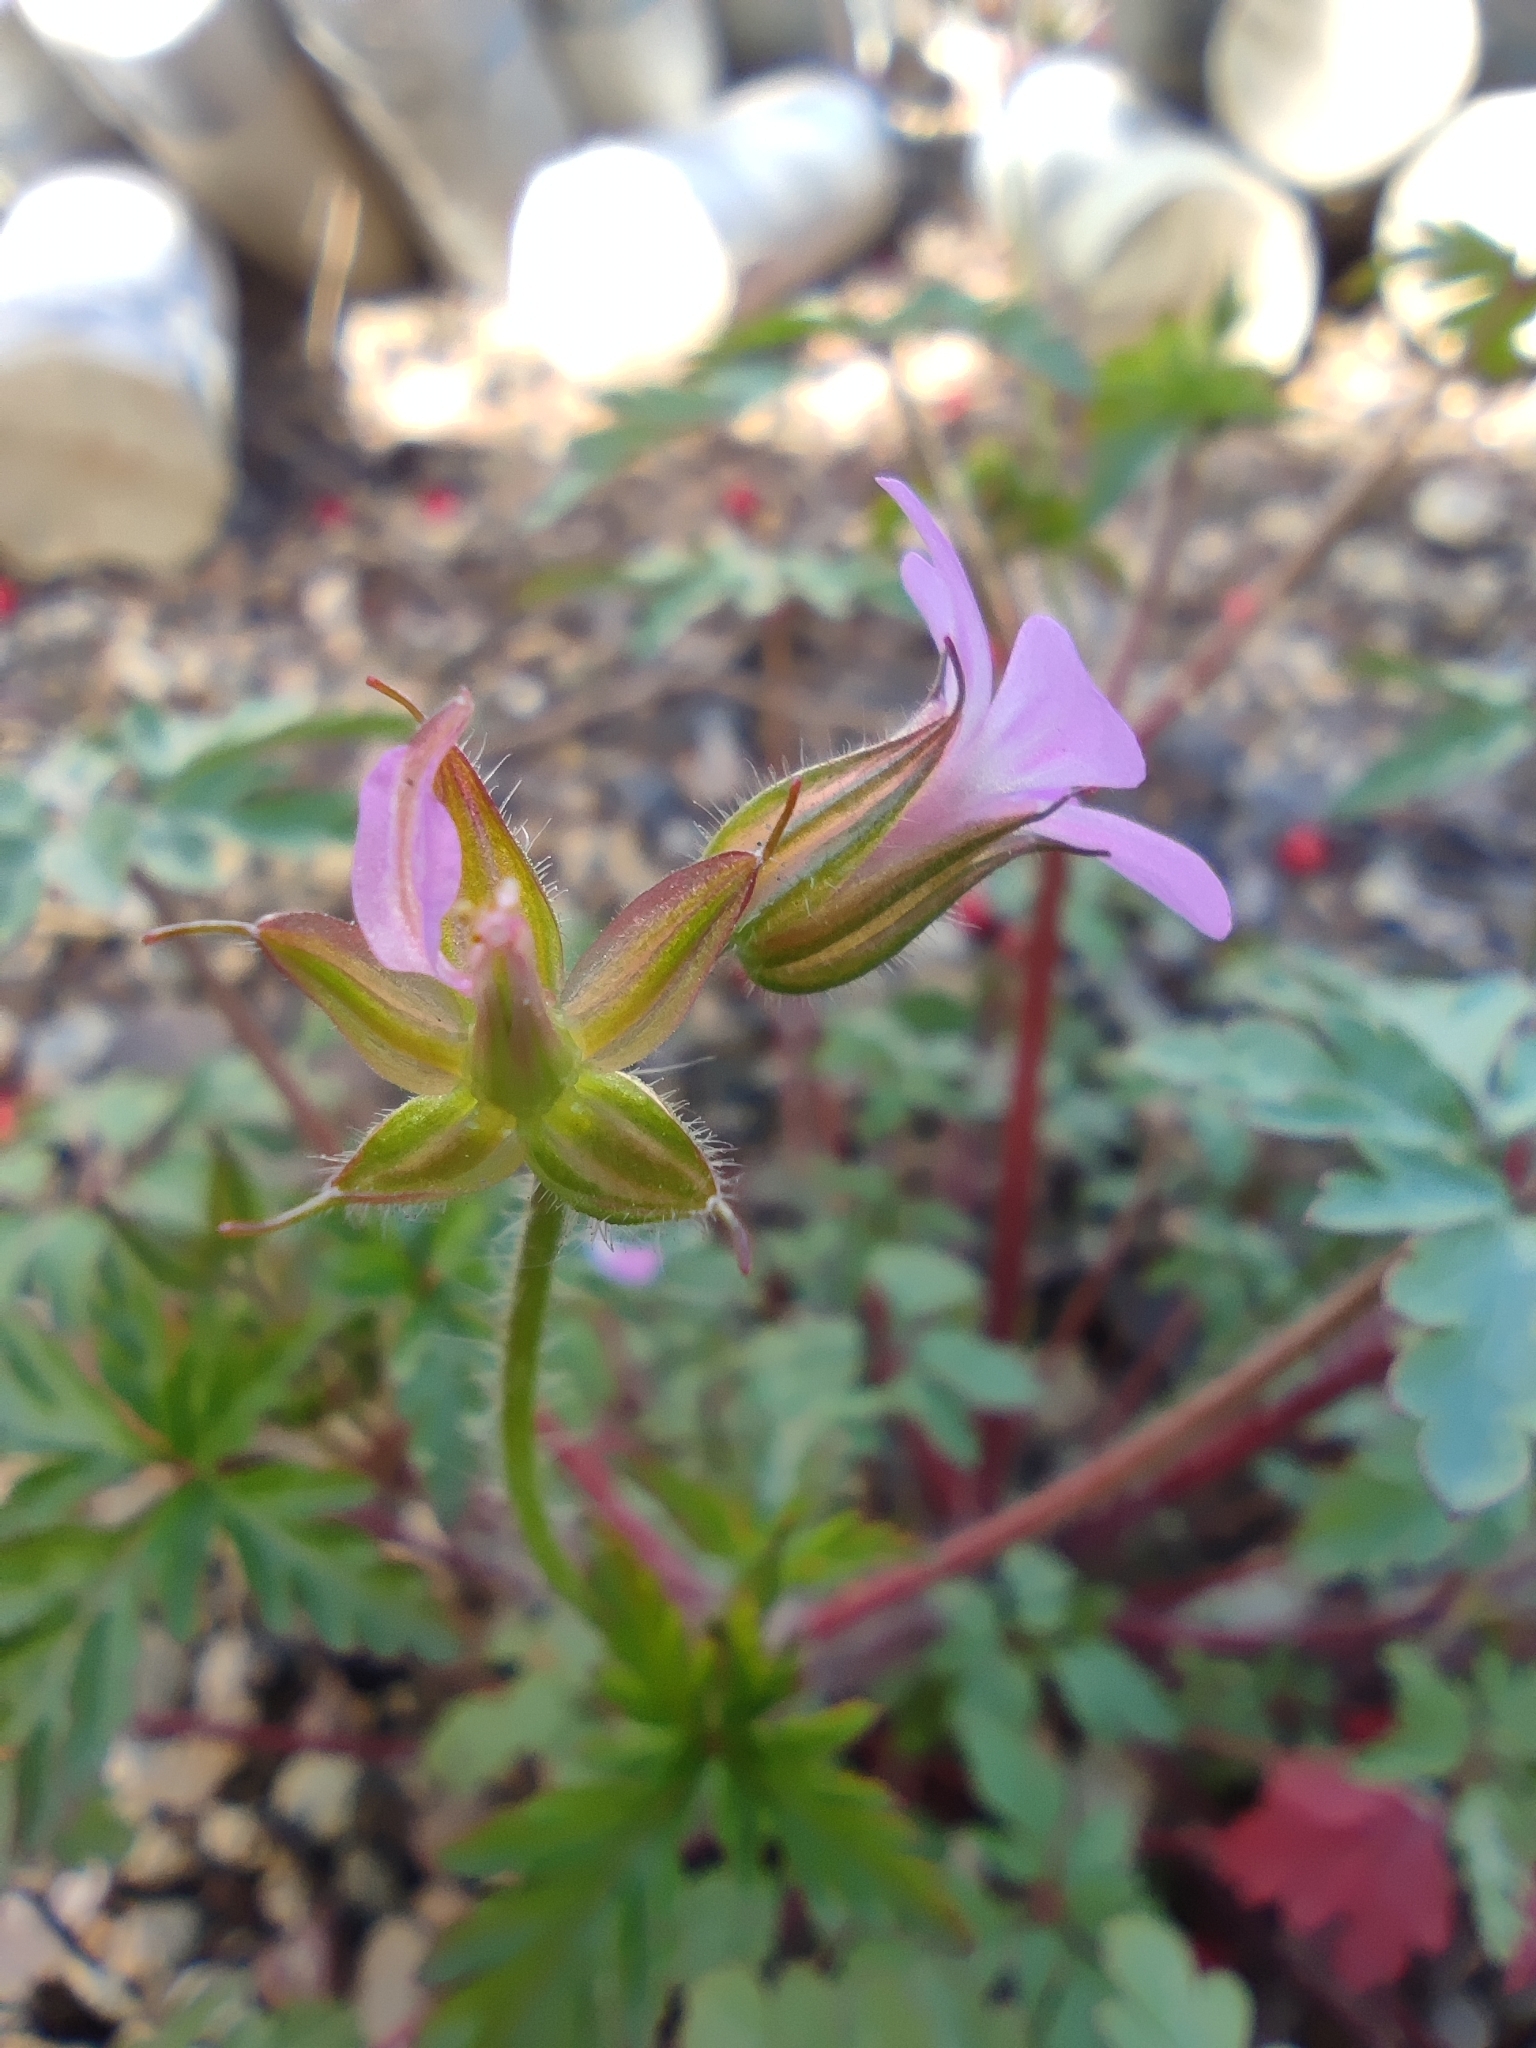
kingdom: Plantae
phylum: Tracheophyta
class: Magnoliopsida
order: Geraniales
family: Geraniaceae
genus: Geranium
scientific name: Geranium purpureum
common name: Little-robin
